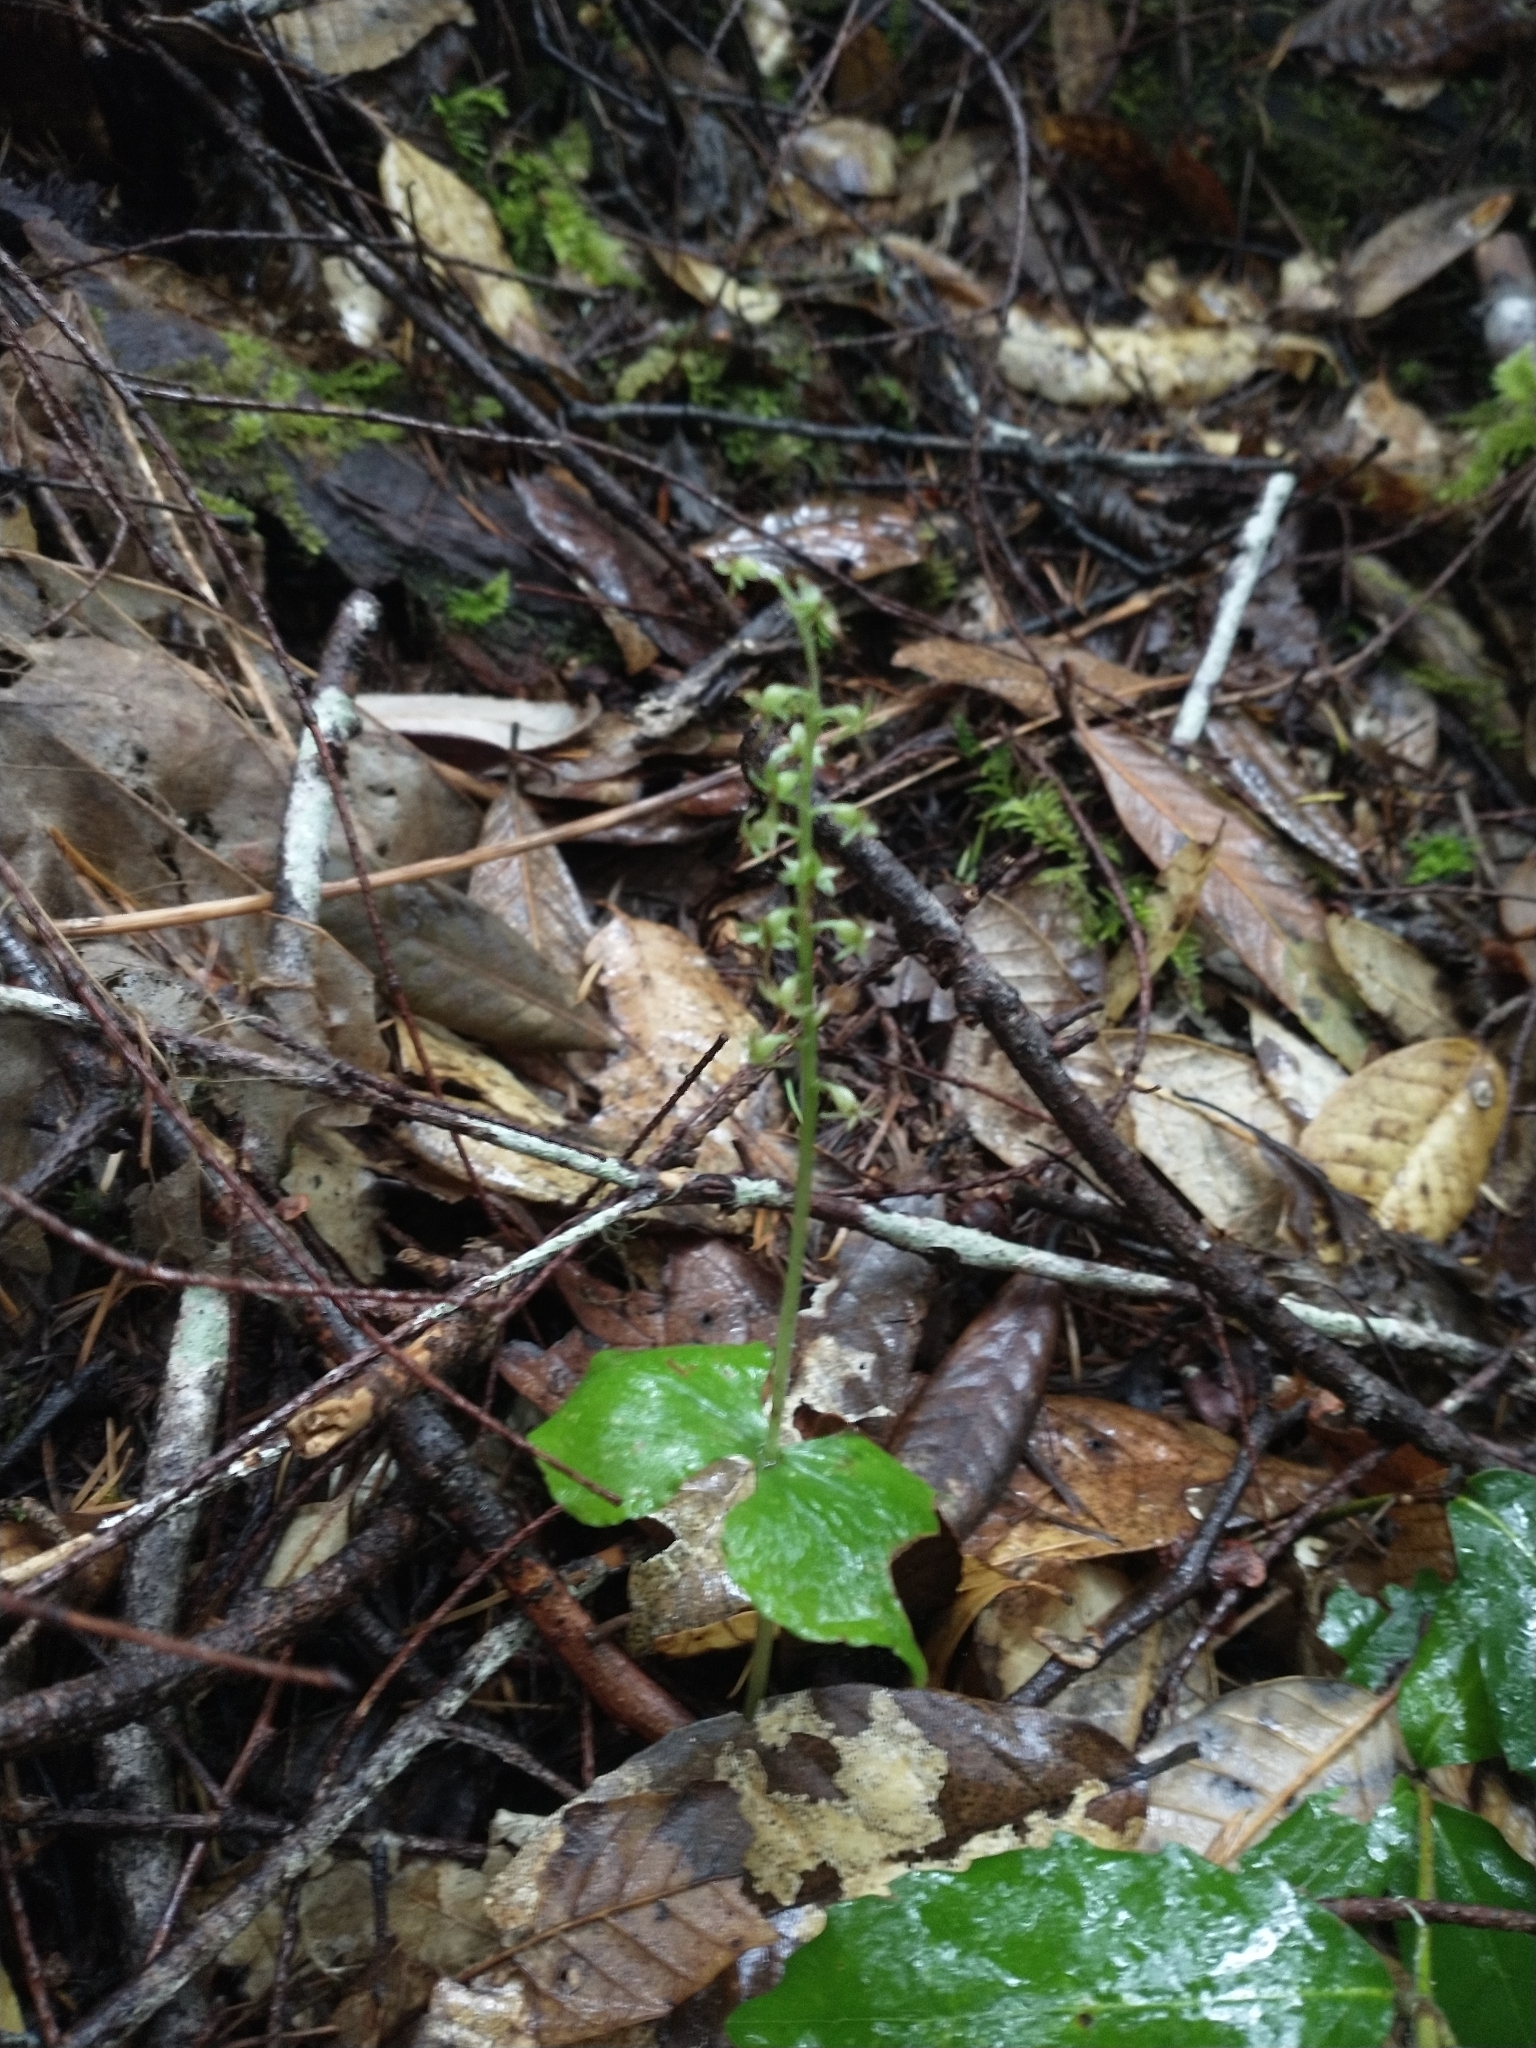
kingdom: Plantae
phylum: Tracheophyta
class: Liliopsida
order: Asparagales
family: Orchidaceae
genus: Neottia
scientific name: Neottia cordata
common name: Lesser twayblade
